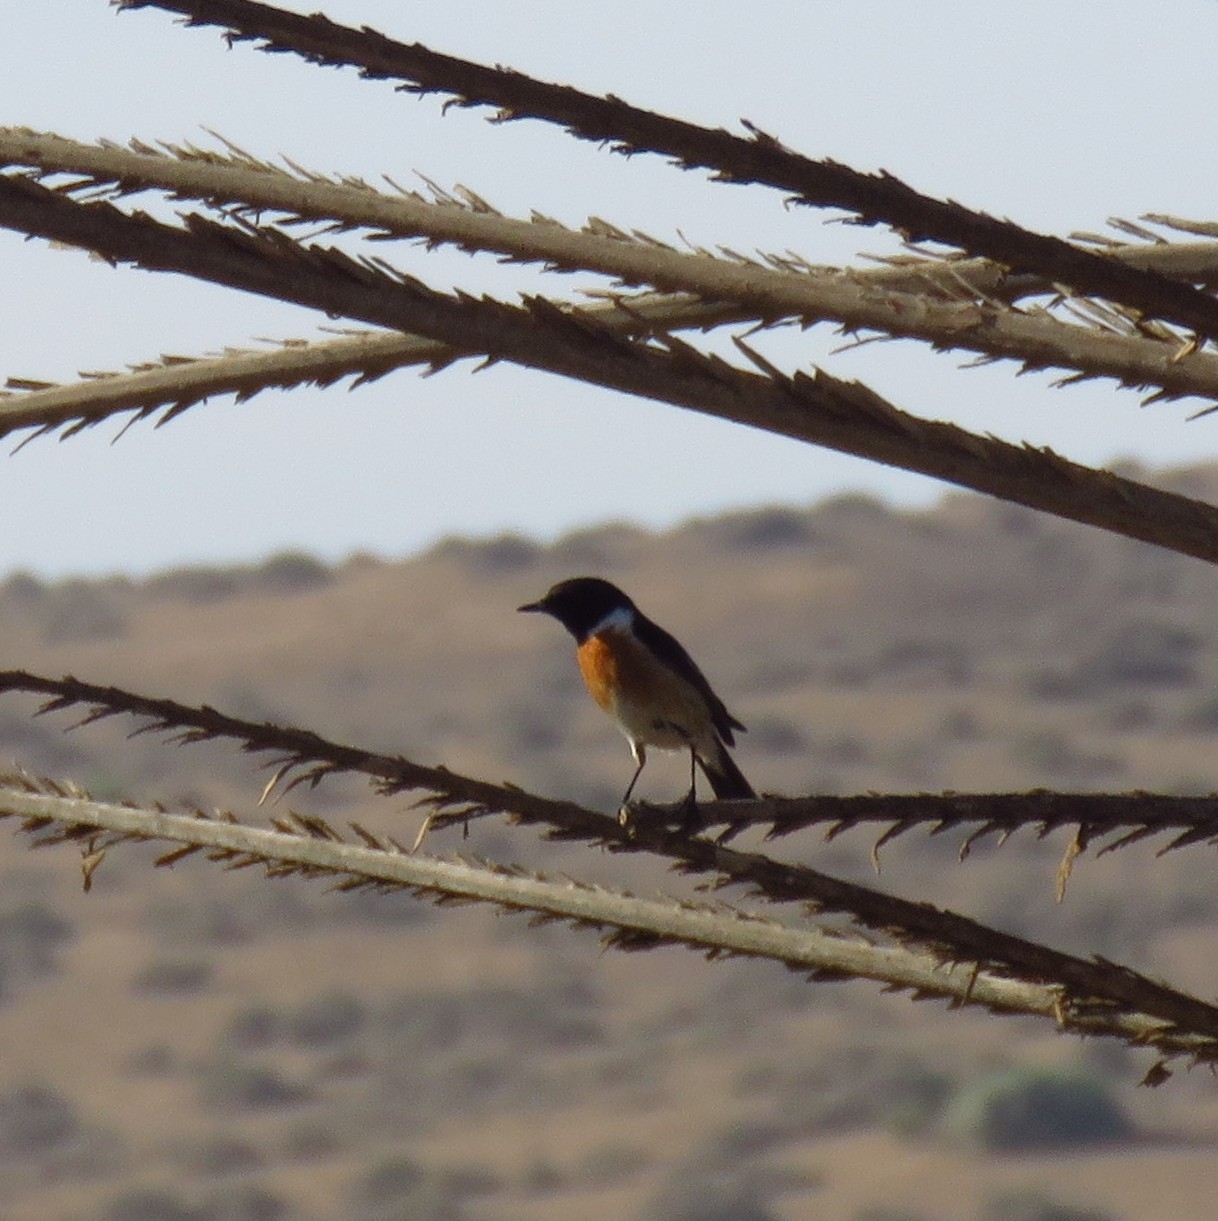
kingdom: Animalia
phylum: Chordata
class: Aves
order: Passeriformes
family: Muscicapidae
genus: Saxicola
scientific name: Saxicola rubicola
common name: European stonechat
